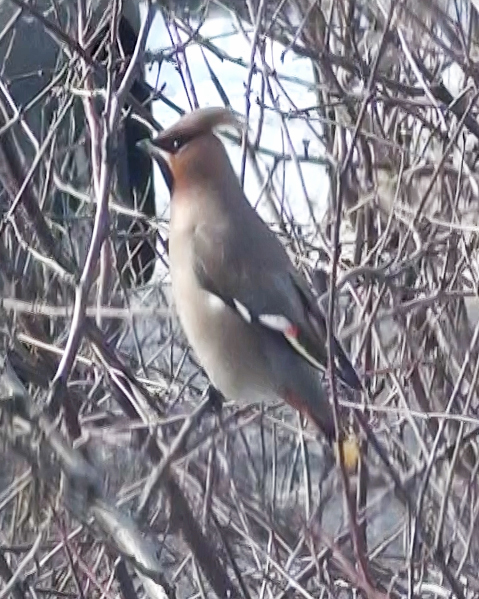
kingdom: Animalia
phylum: Chordata
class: Aves
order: Passeriformes
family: Bombycillidae
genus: Bombycilla
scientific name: Bombycilla garrulus
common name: Bohemian waxwing
